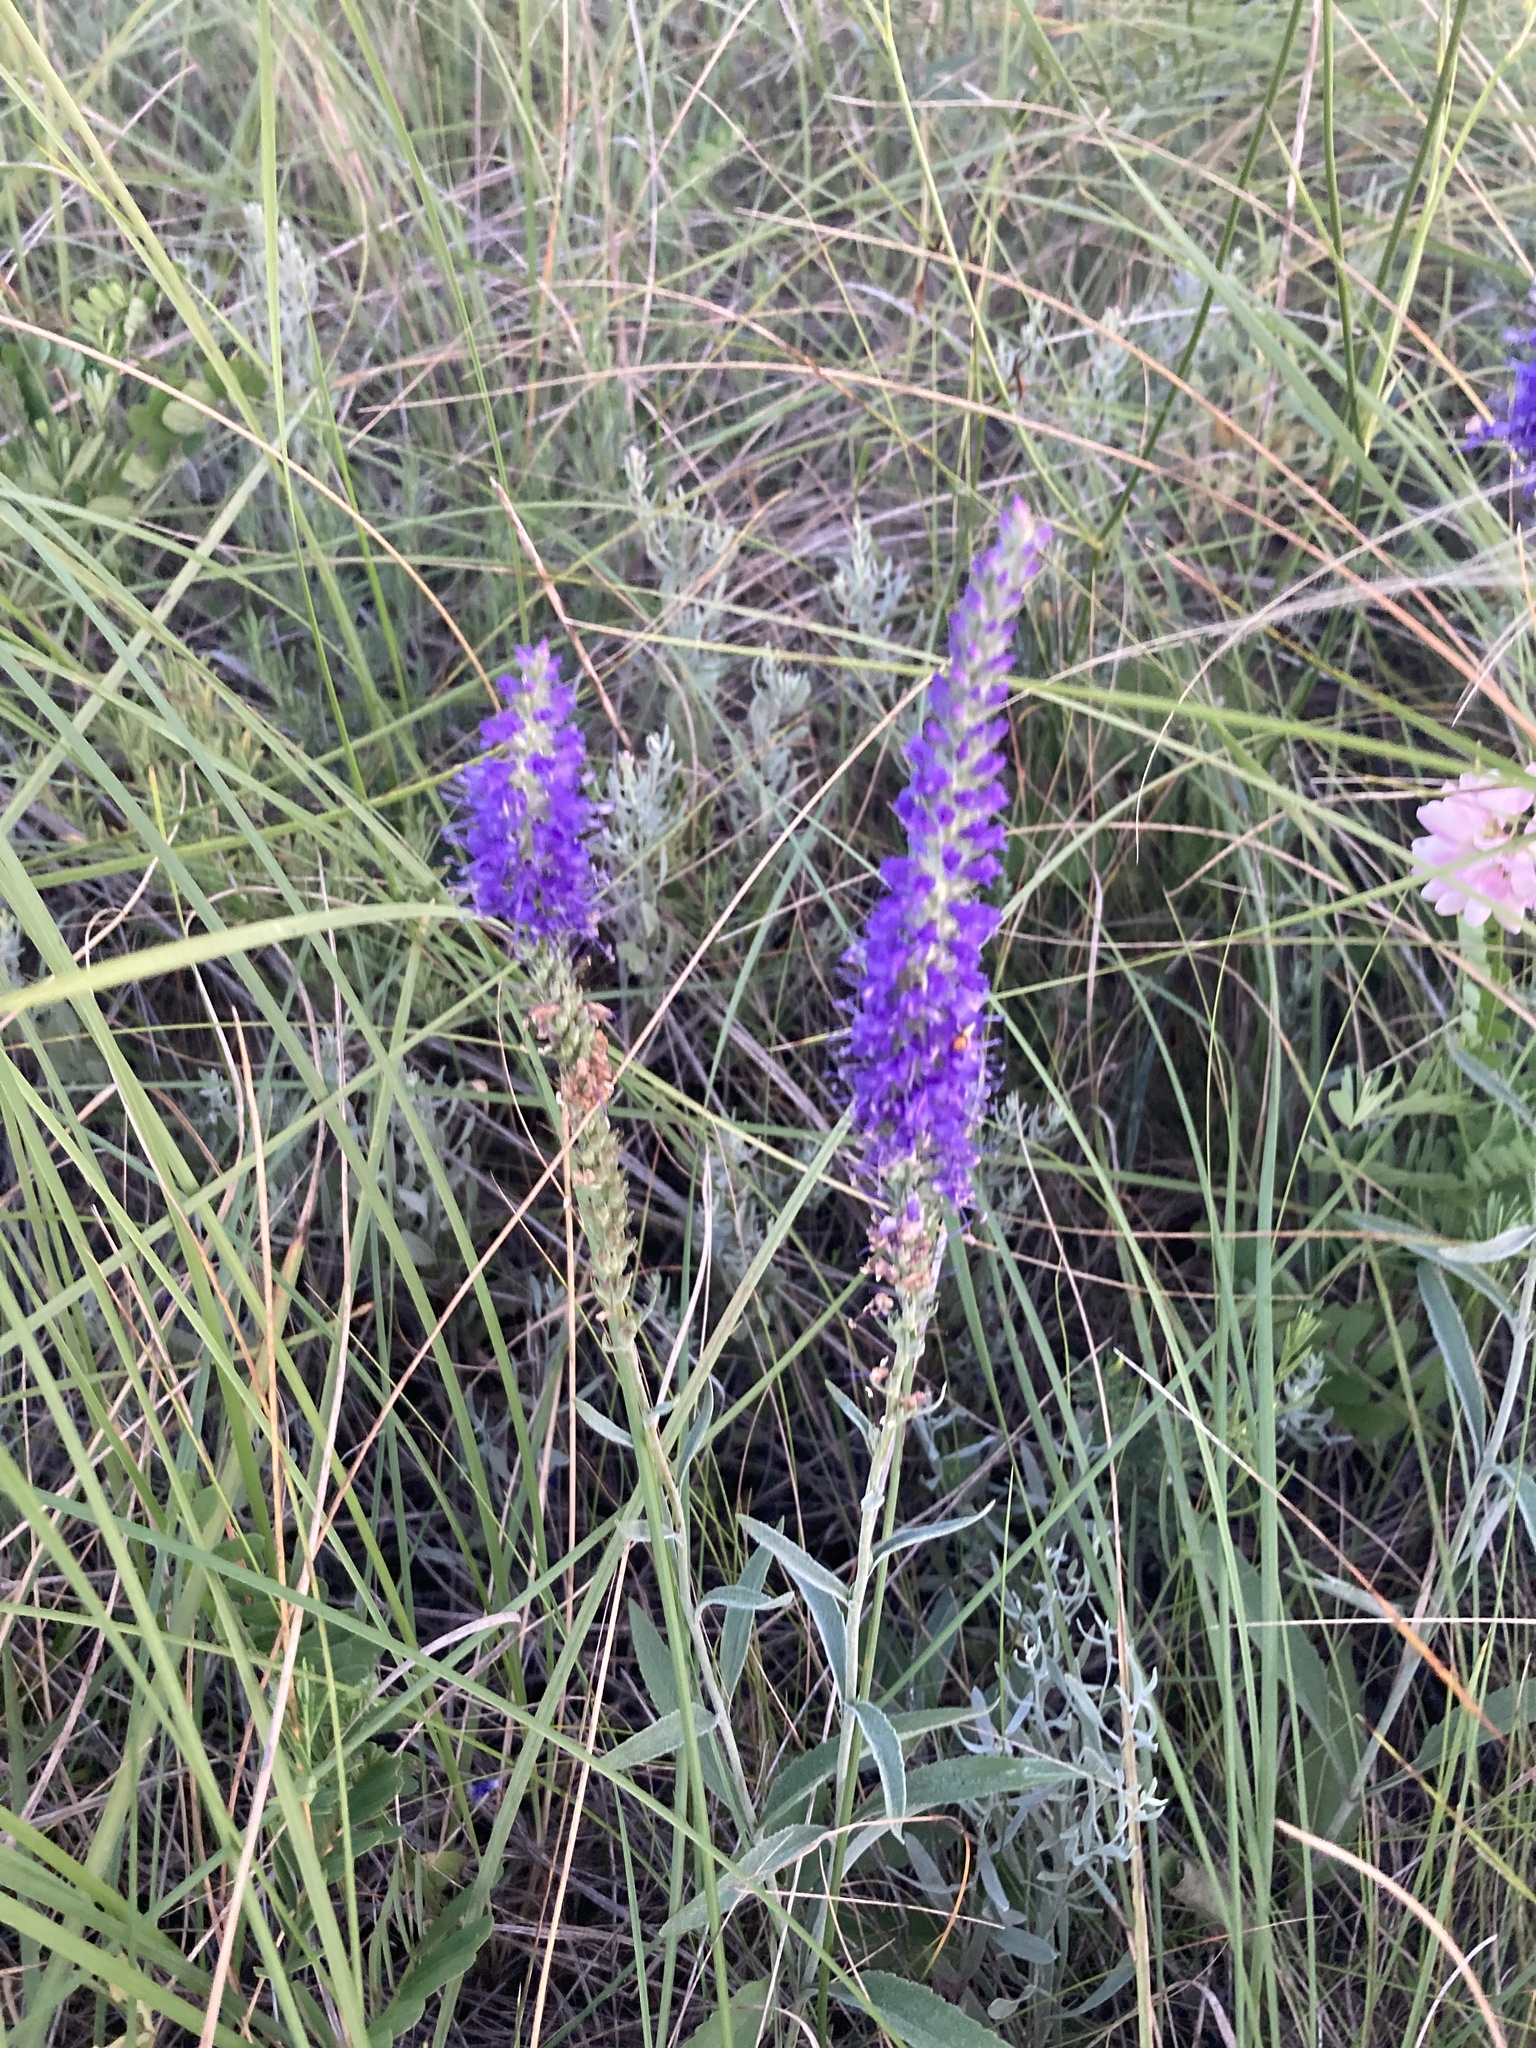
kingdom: Plantae
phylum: Tracheophyta
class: Magnoliopsida
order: Lamiales
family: Plantaginaceae
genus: Veronica
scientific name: Veronica incana
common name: Silver speedwell
